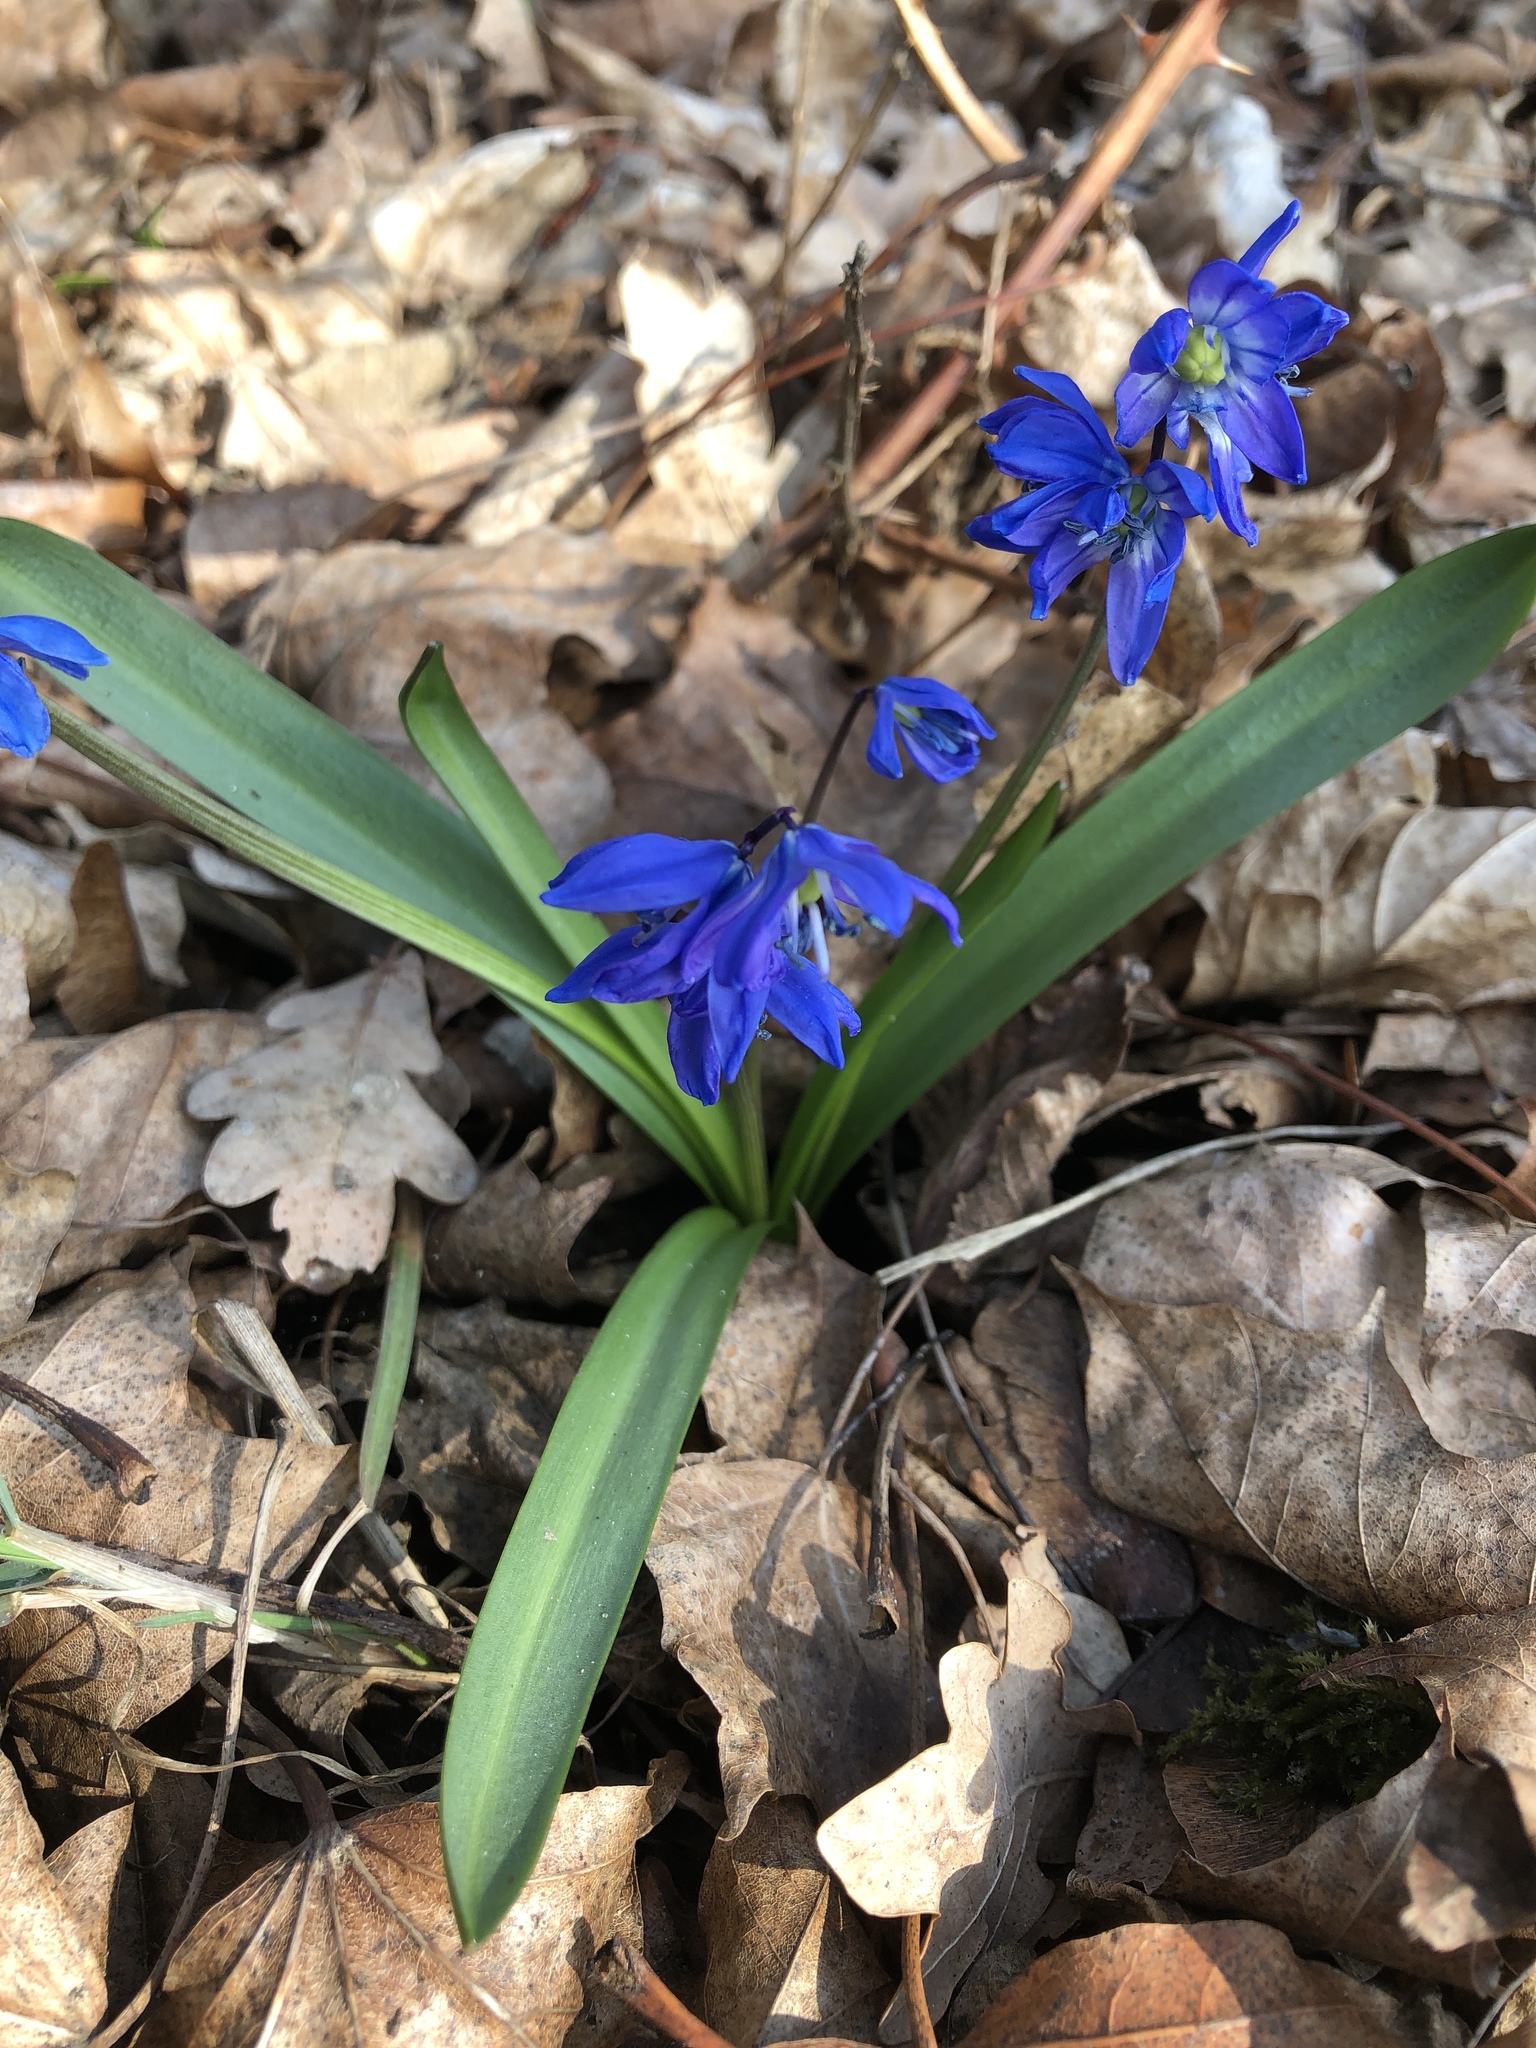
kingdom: Plantae
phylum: Tracheophyta
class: Liliopsida
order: Asparagales
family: Asparagaceae
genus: Scilla
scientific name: Scilla siberica
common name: Siberian squill
